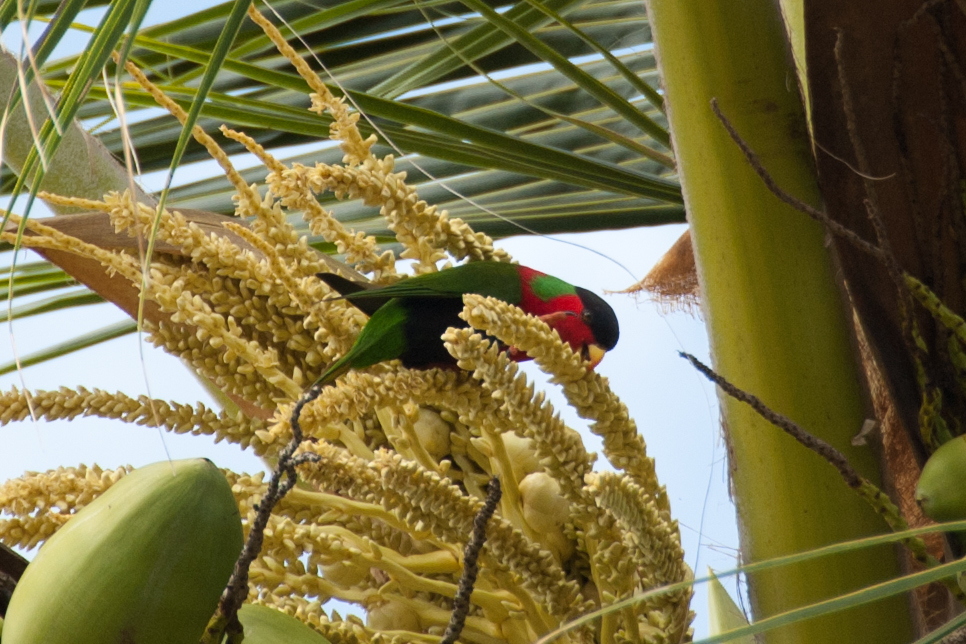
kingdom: Plantae
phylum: Tracheophyta
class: Liliopsida
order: Arecales
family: Arecaceae
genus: Cocos
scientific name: Cocos nucifera
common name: Coconut palm
